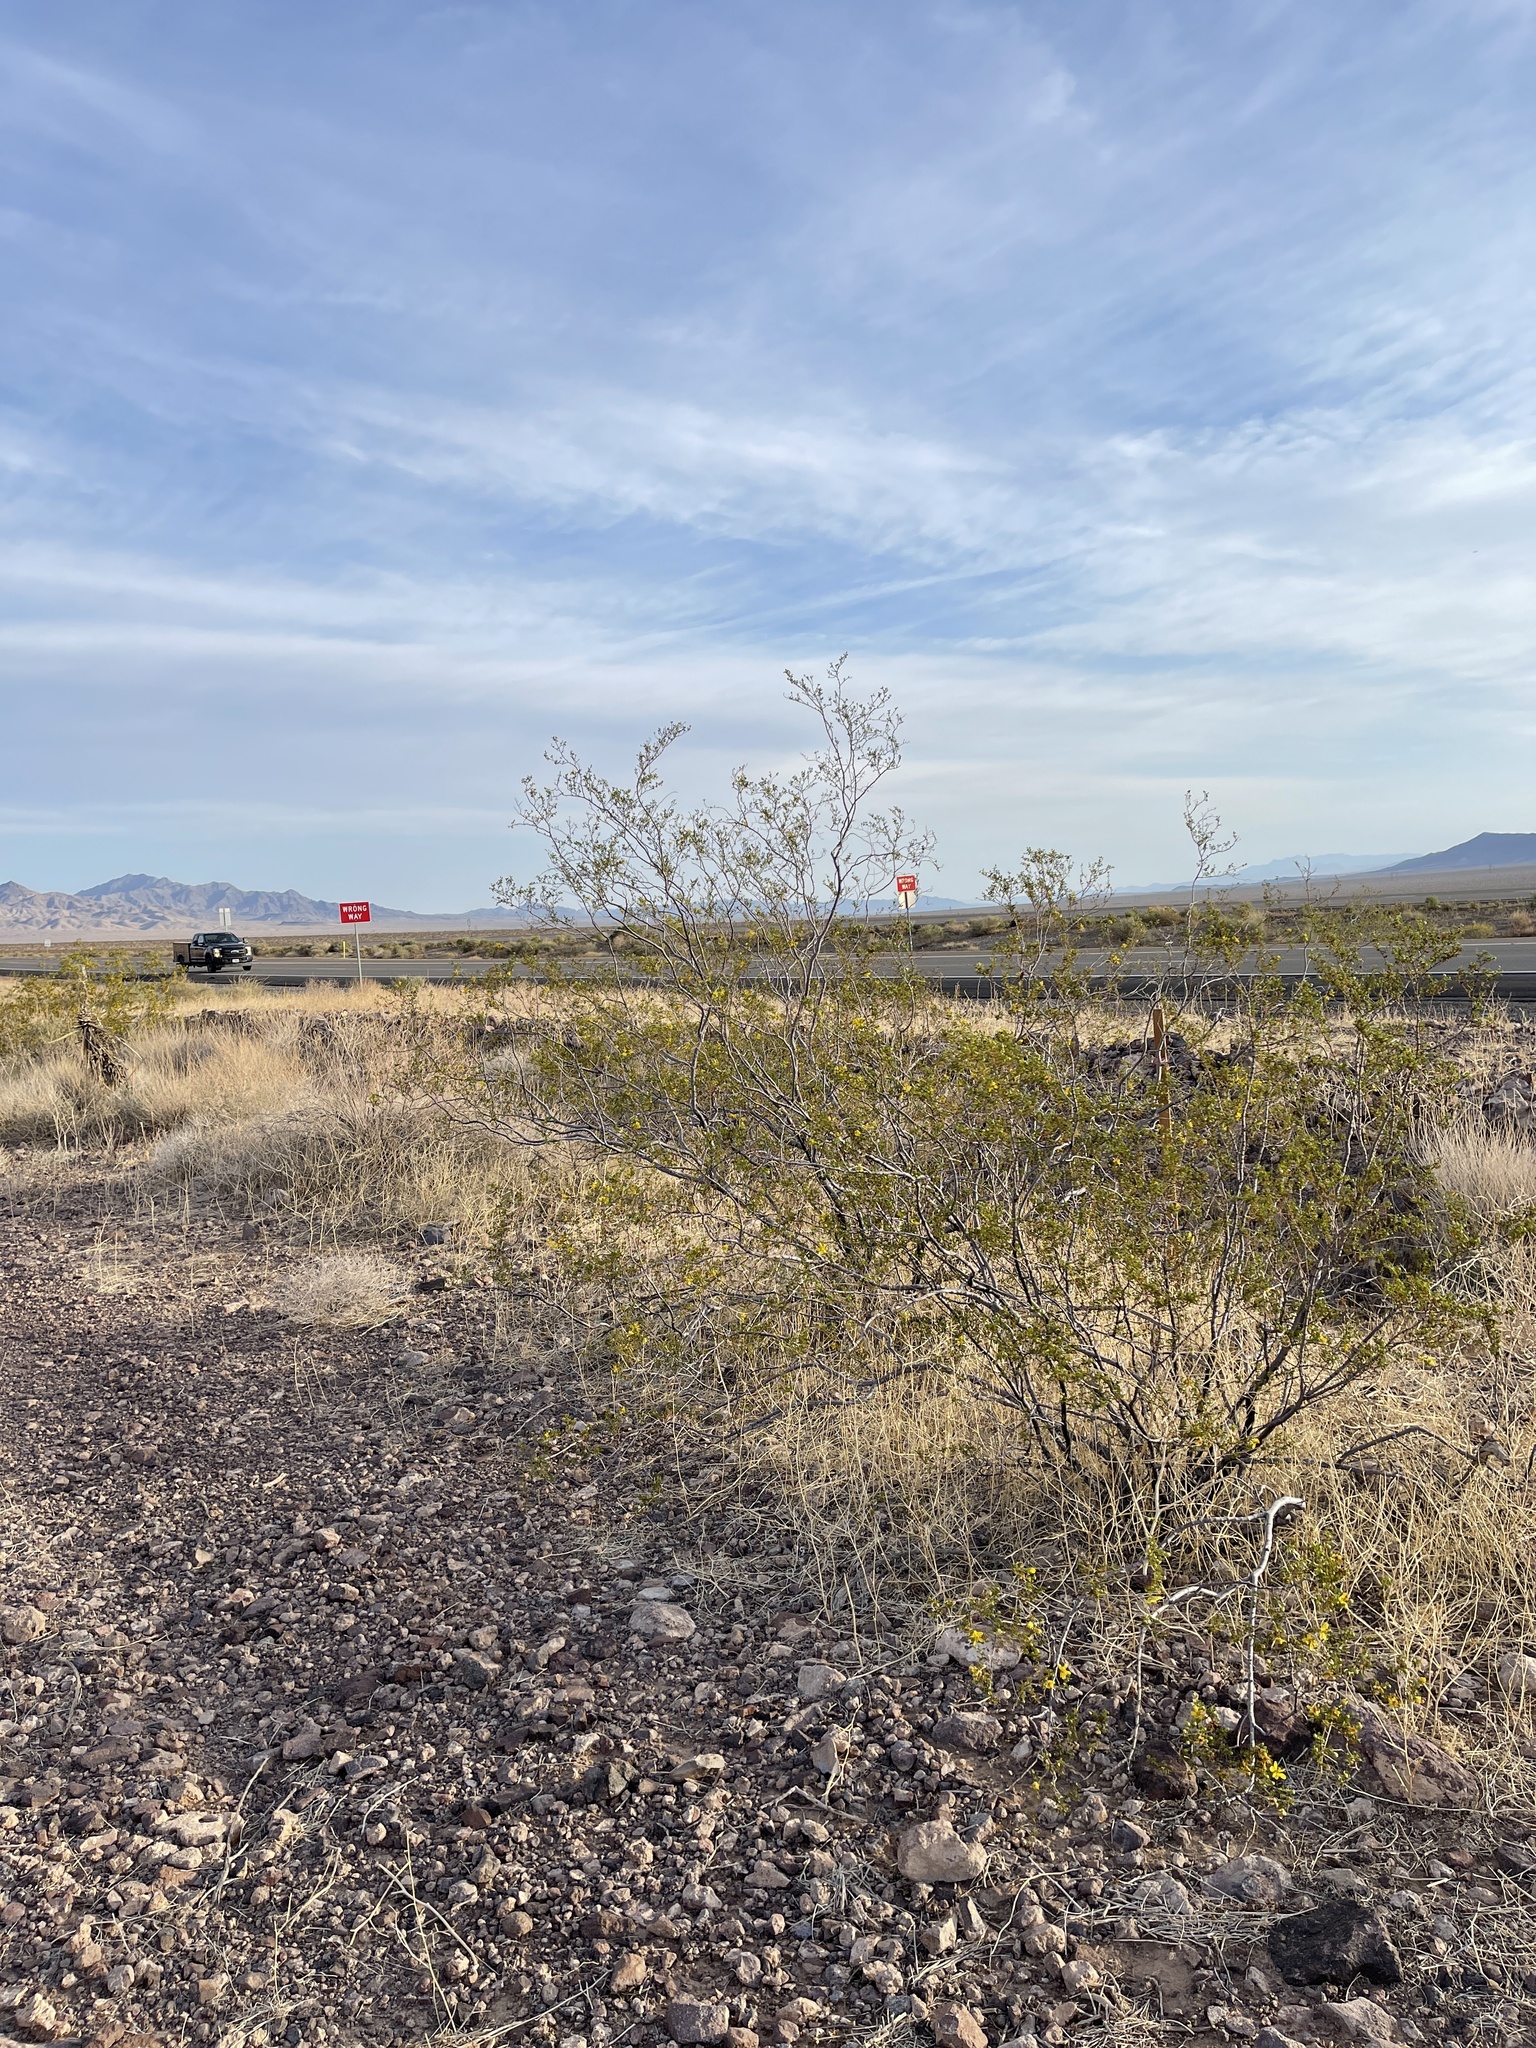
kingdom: Plantae
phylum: Tracheophyta
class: Magnoliopsida
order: Zygophyllales
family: Zygophyllaceae
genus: Larrea
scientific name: Larrea tridentata
